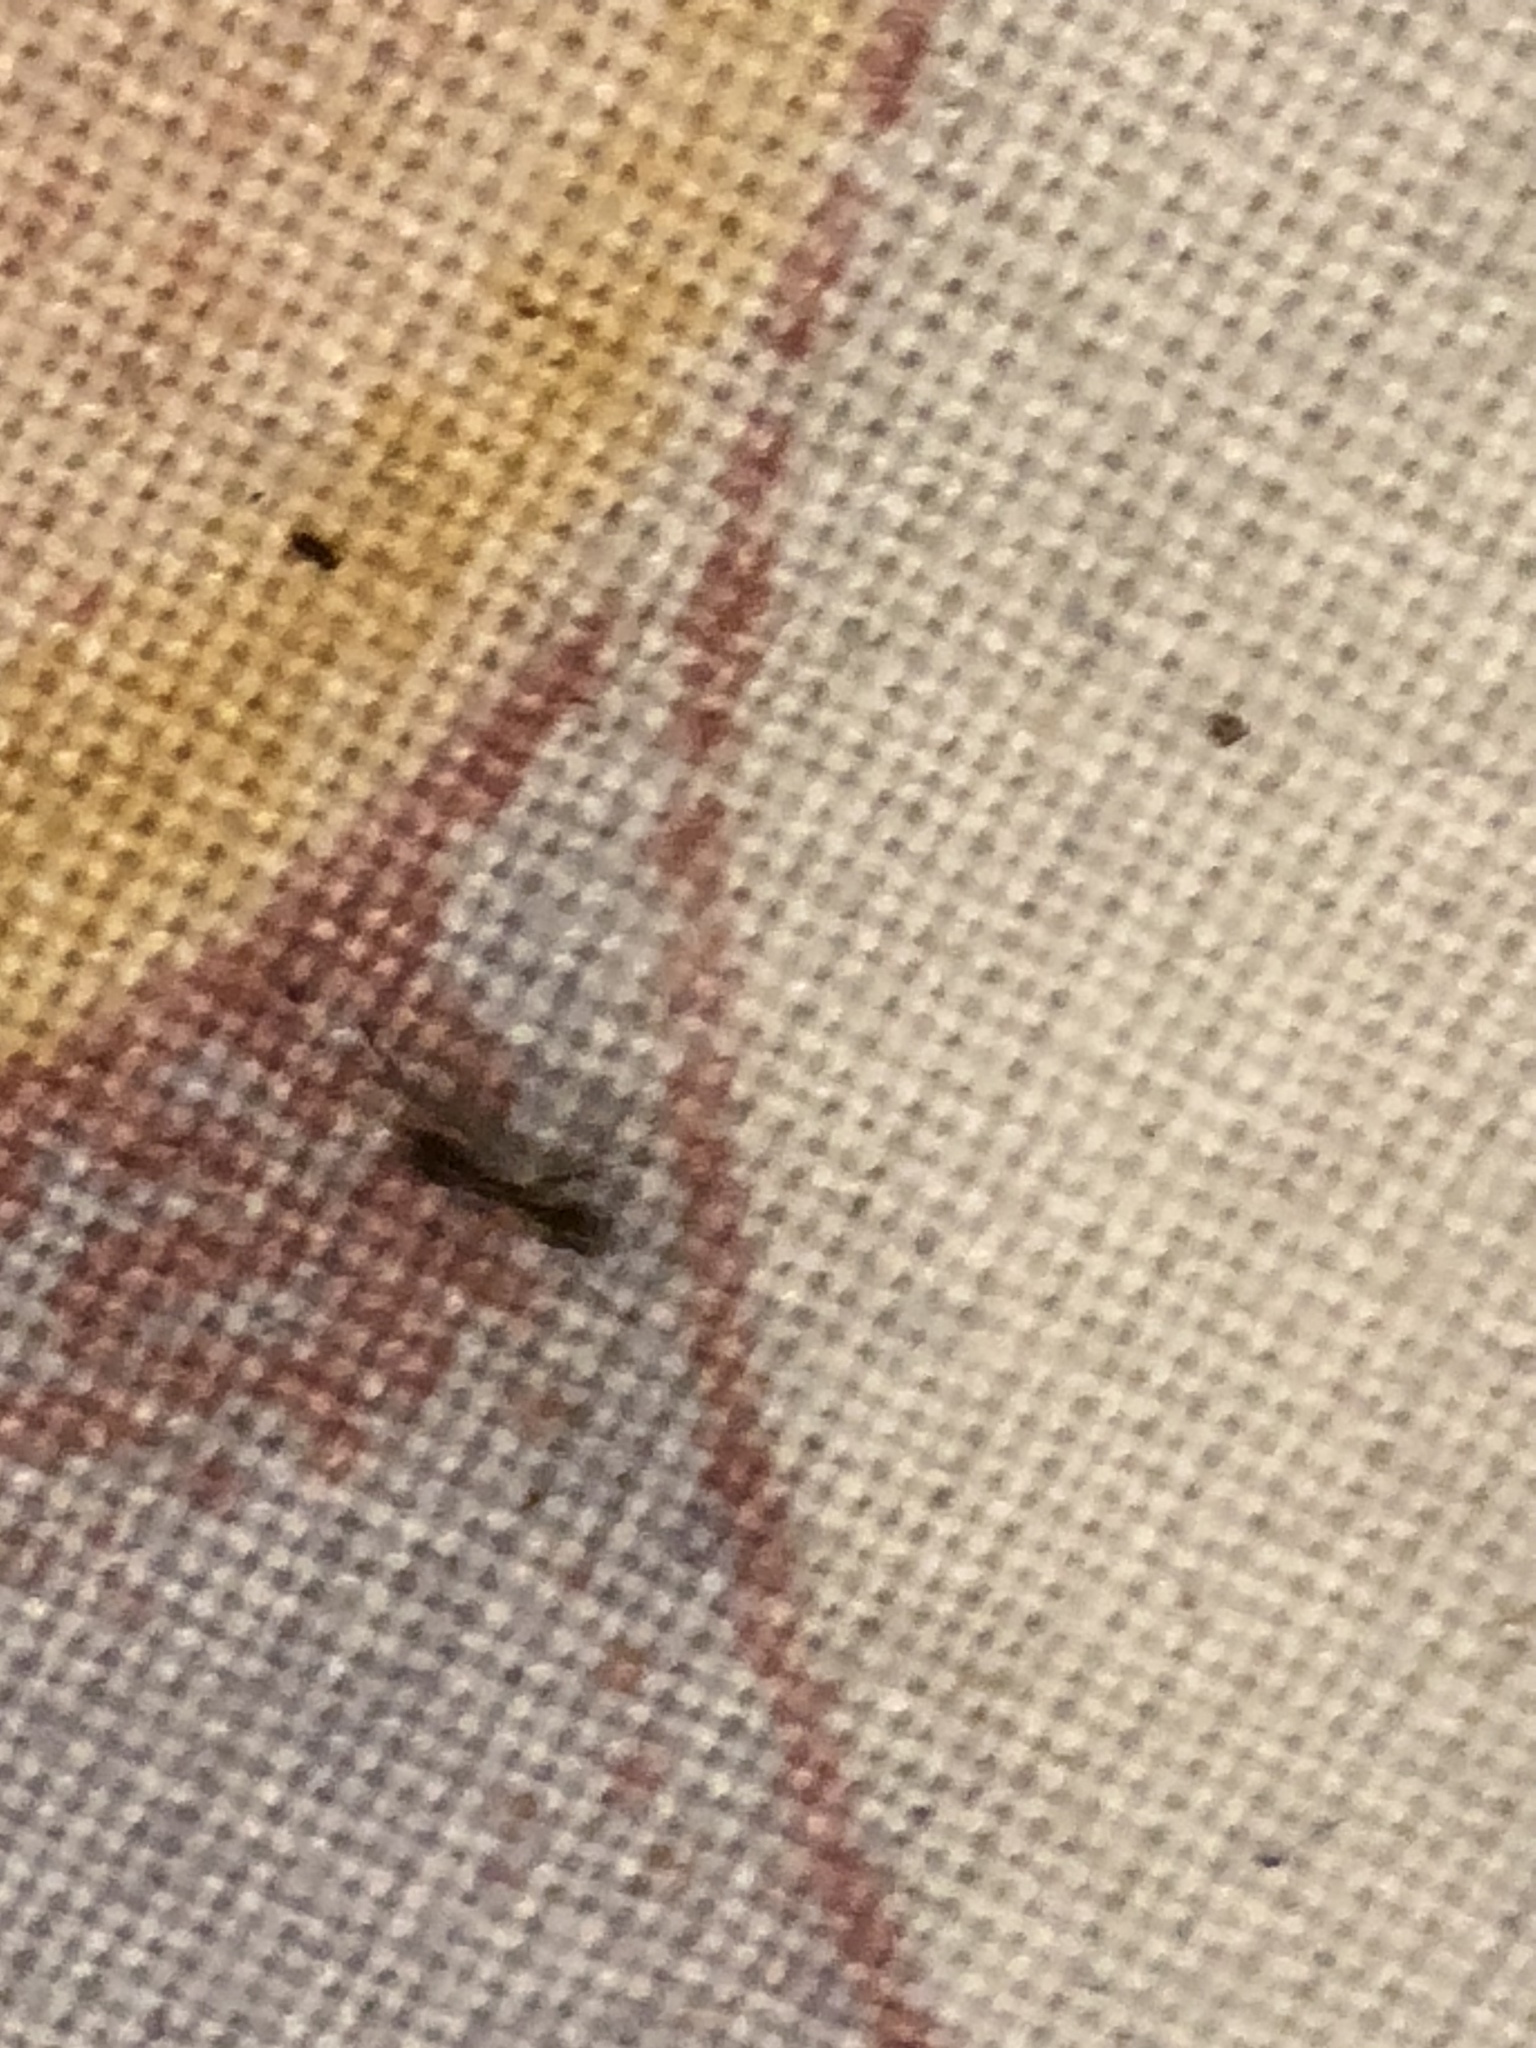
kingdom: Animalia
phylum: Arthropoda
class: Insecta
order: Hymenoptera
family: Formicidae
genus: Linepithema
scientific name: Linepithema humile
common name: Argentine ant
